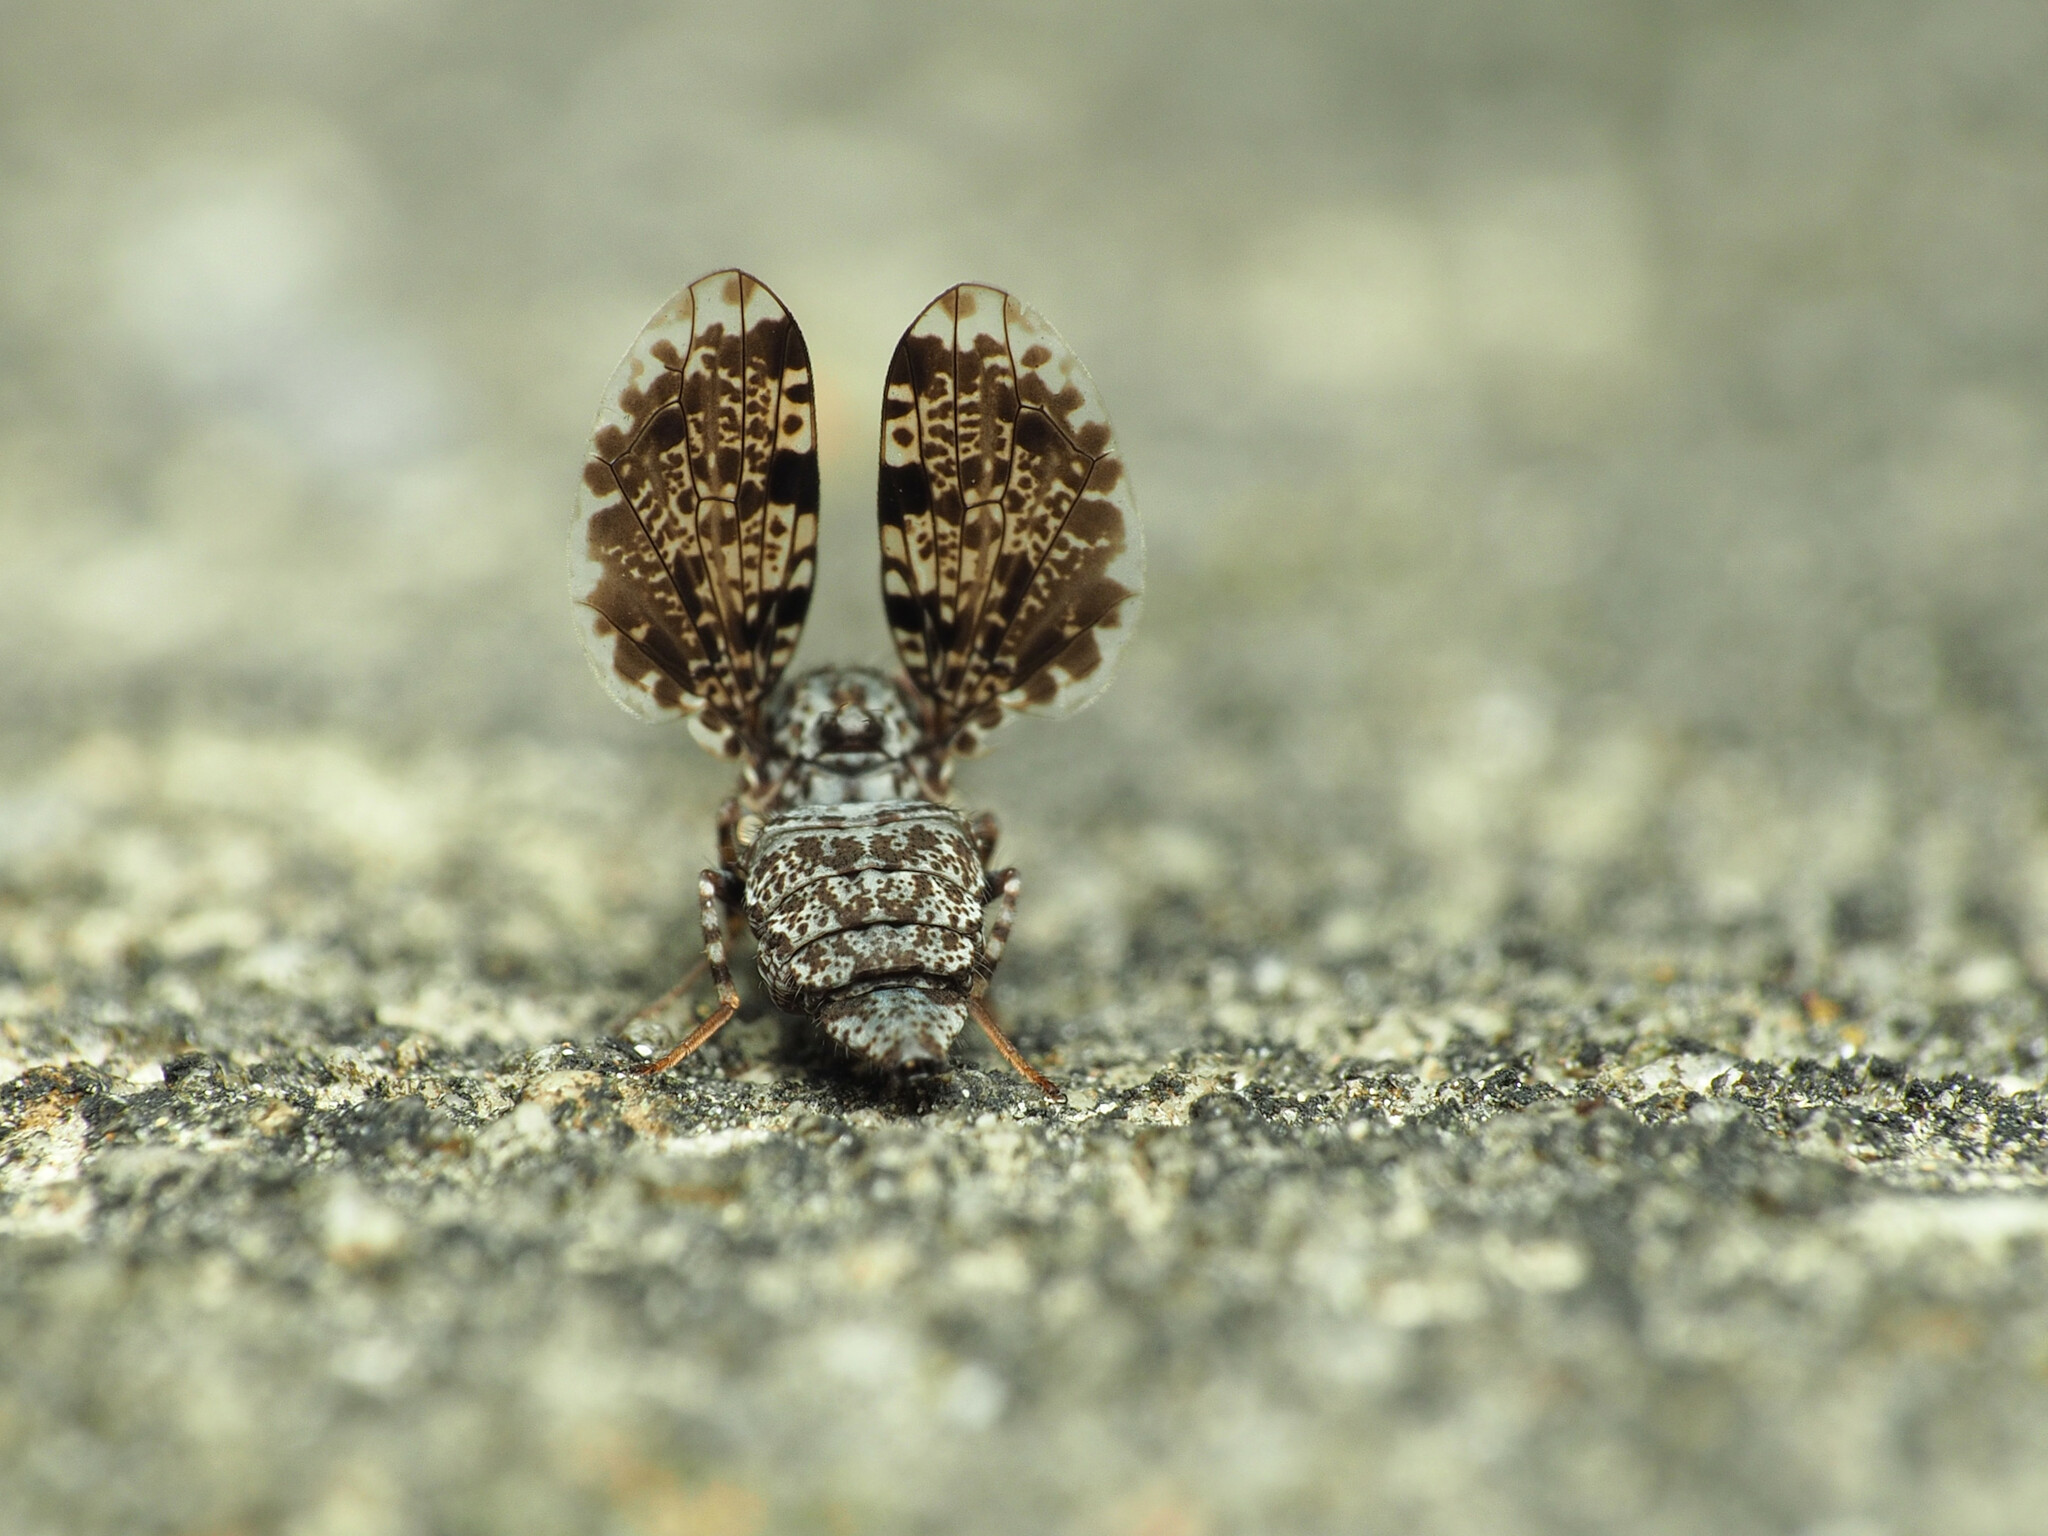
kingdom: Animalia
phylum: Arthropoda
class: Insecta
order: Diptera
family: Ulidiidae
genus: Callopistromyia
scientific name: Callopistromyia annulipes
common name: Peacock fly
